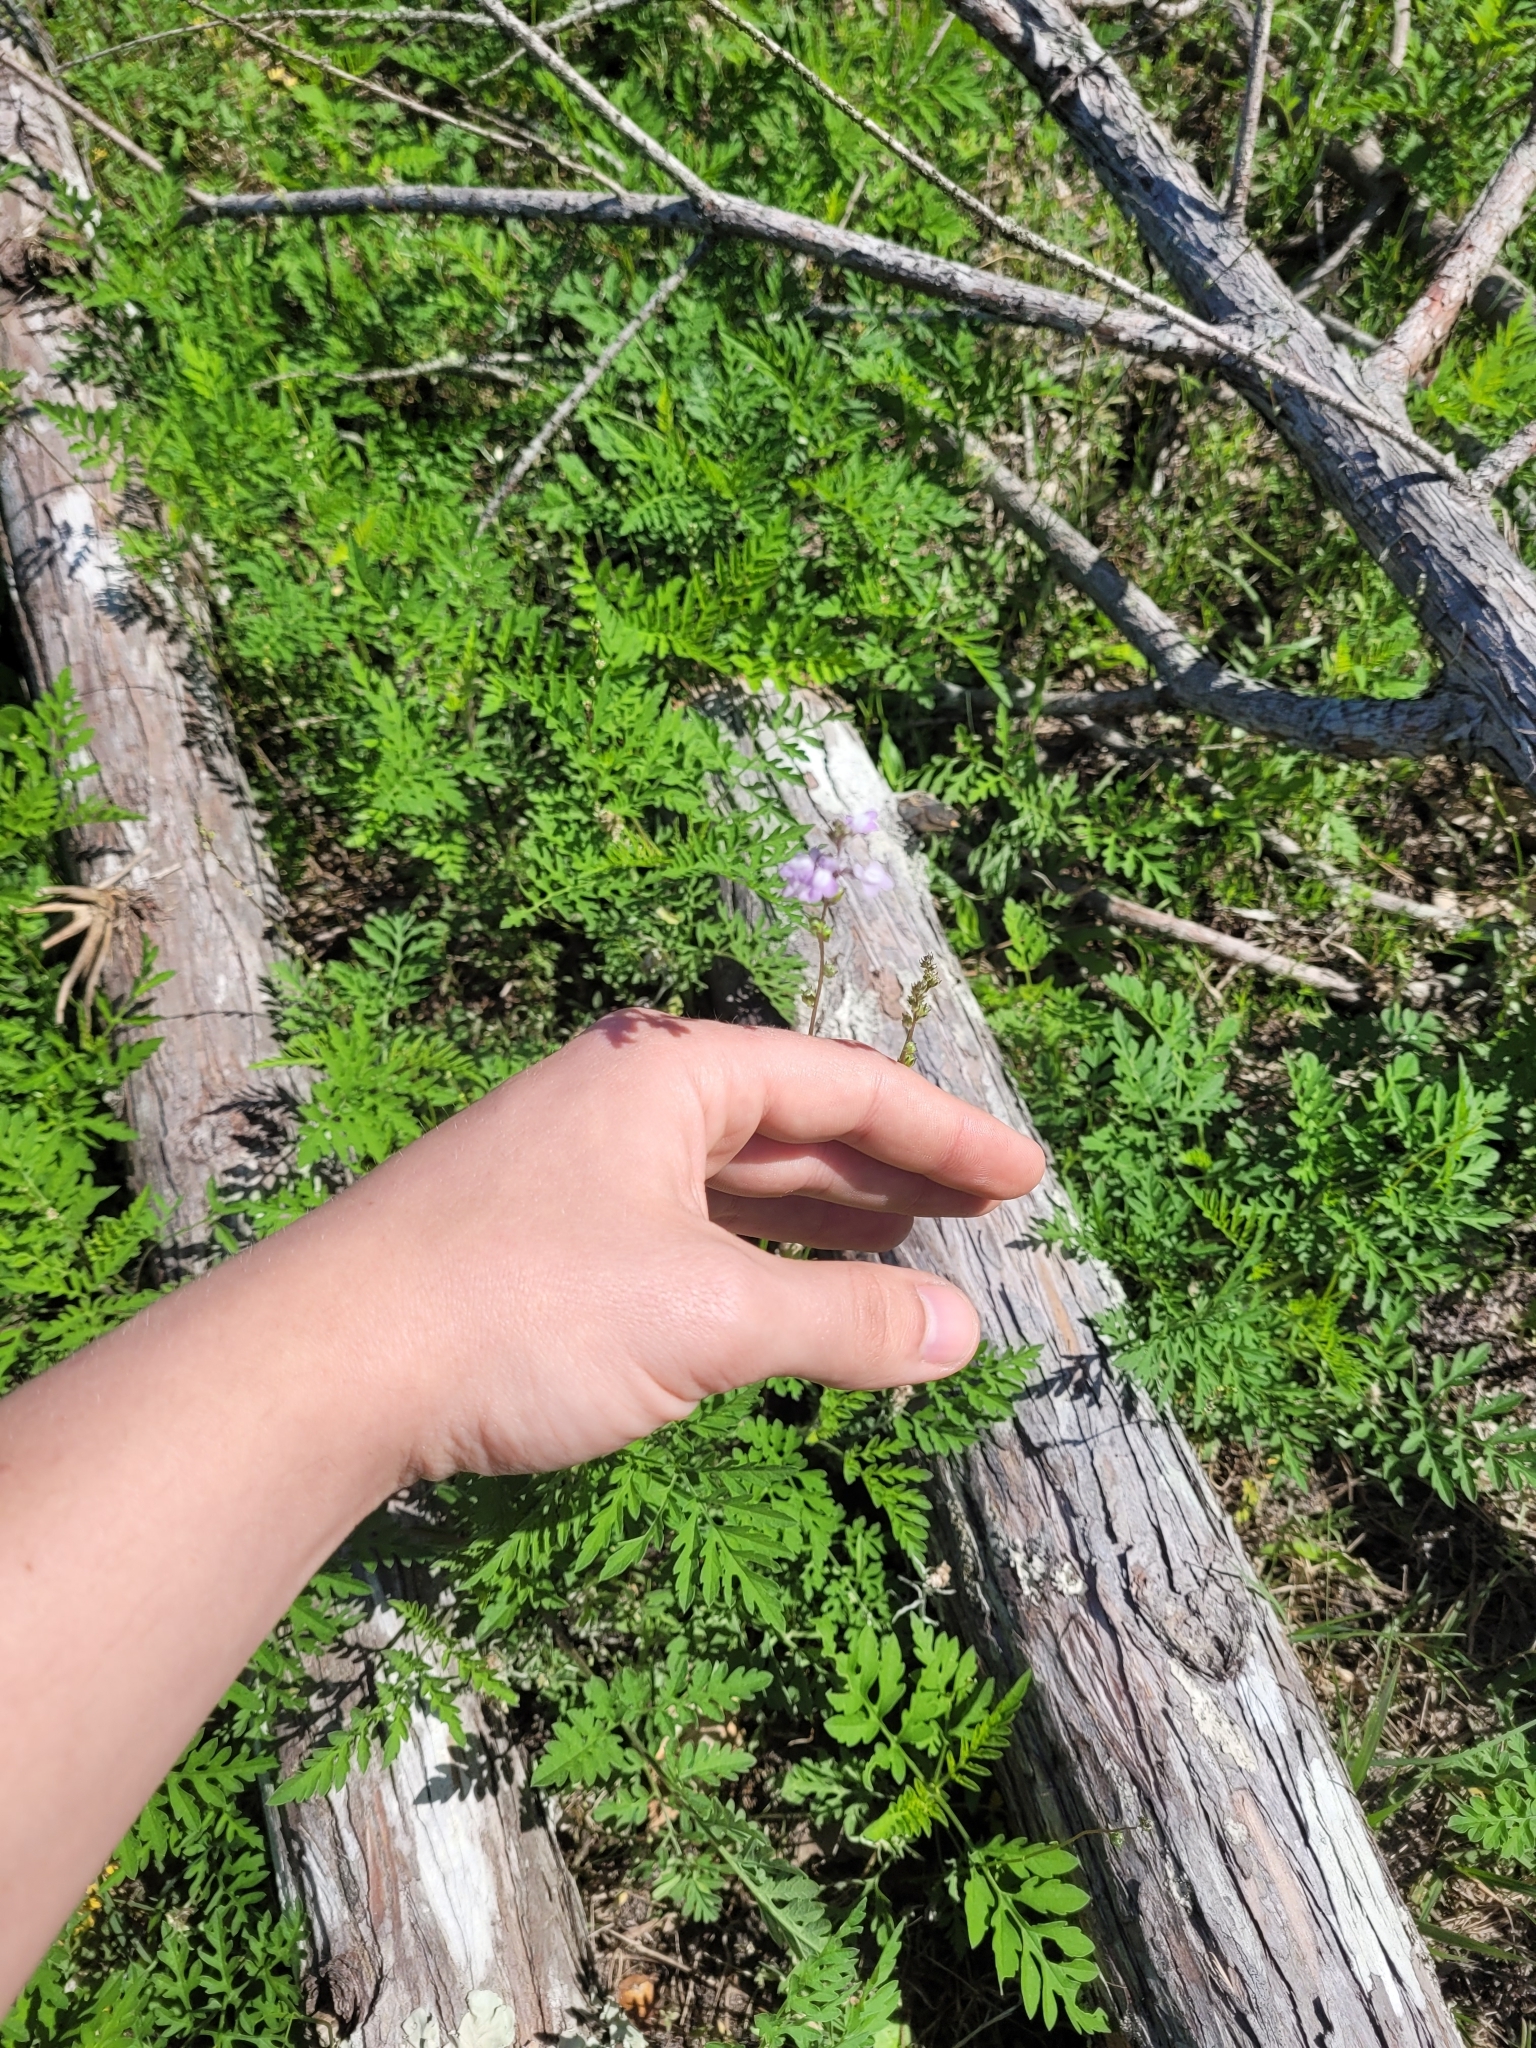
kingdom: Plantae
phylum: Tracheophyta
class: Magnoliopsida
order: Lamiales
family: Plantaginaceae
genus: Nuttallanthus
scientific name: Nuttallanthus canadensis
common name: Blue toadflax
